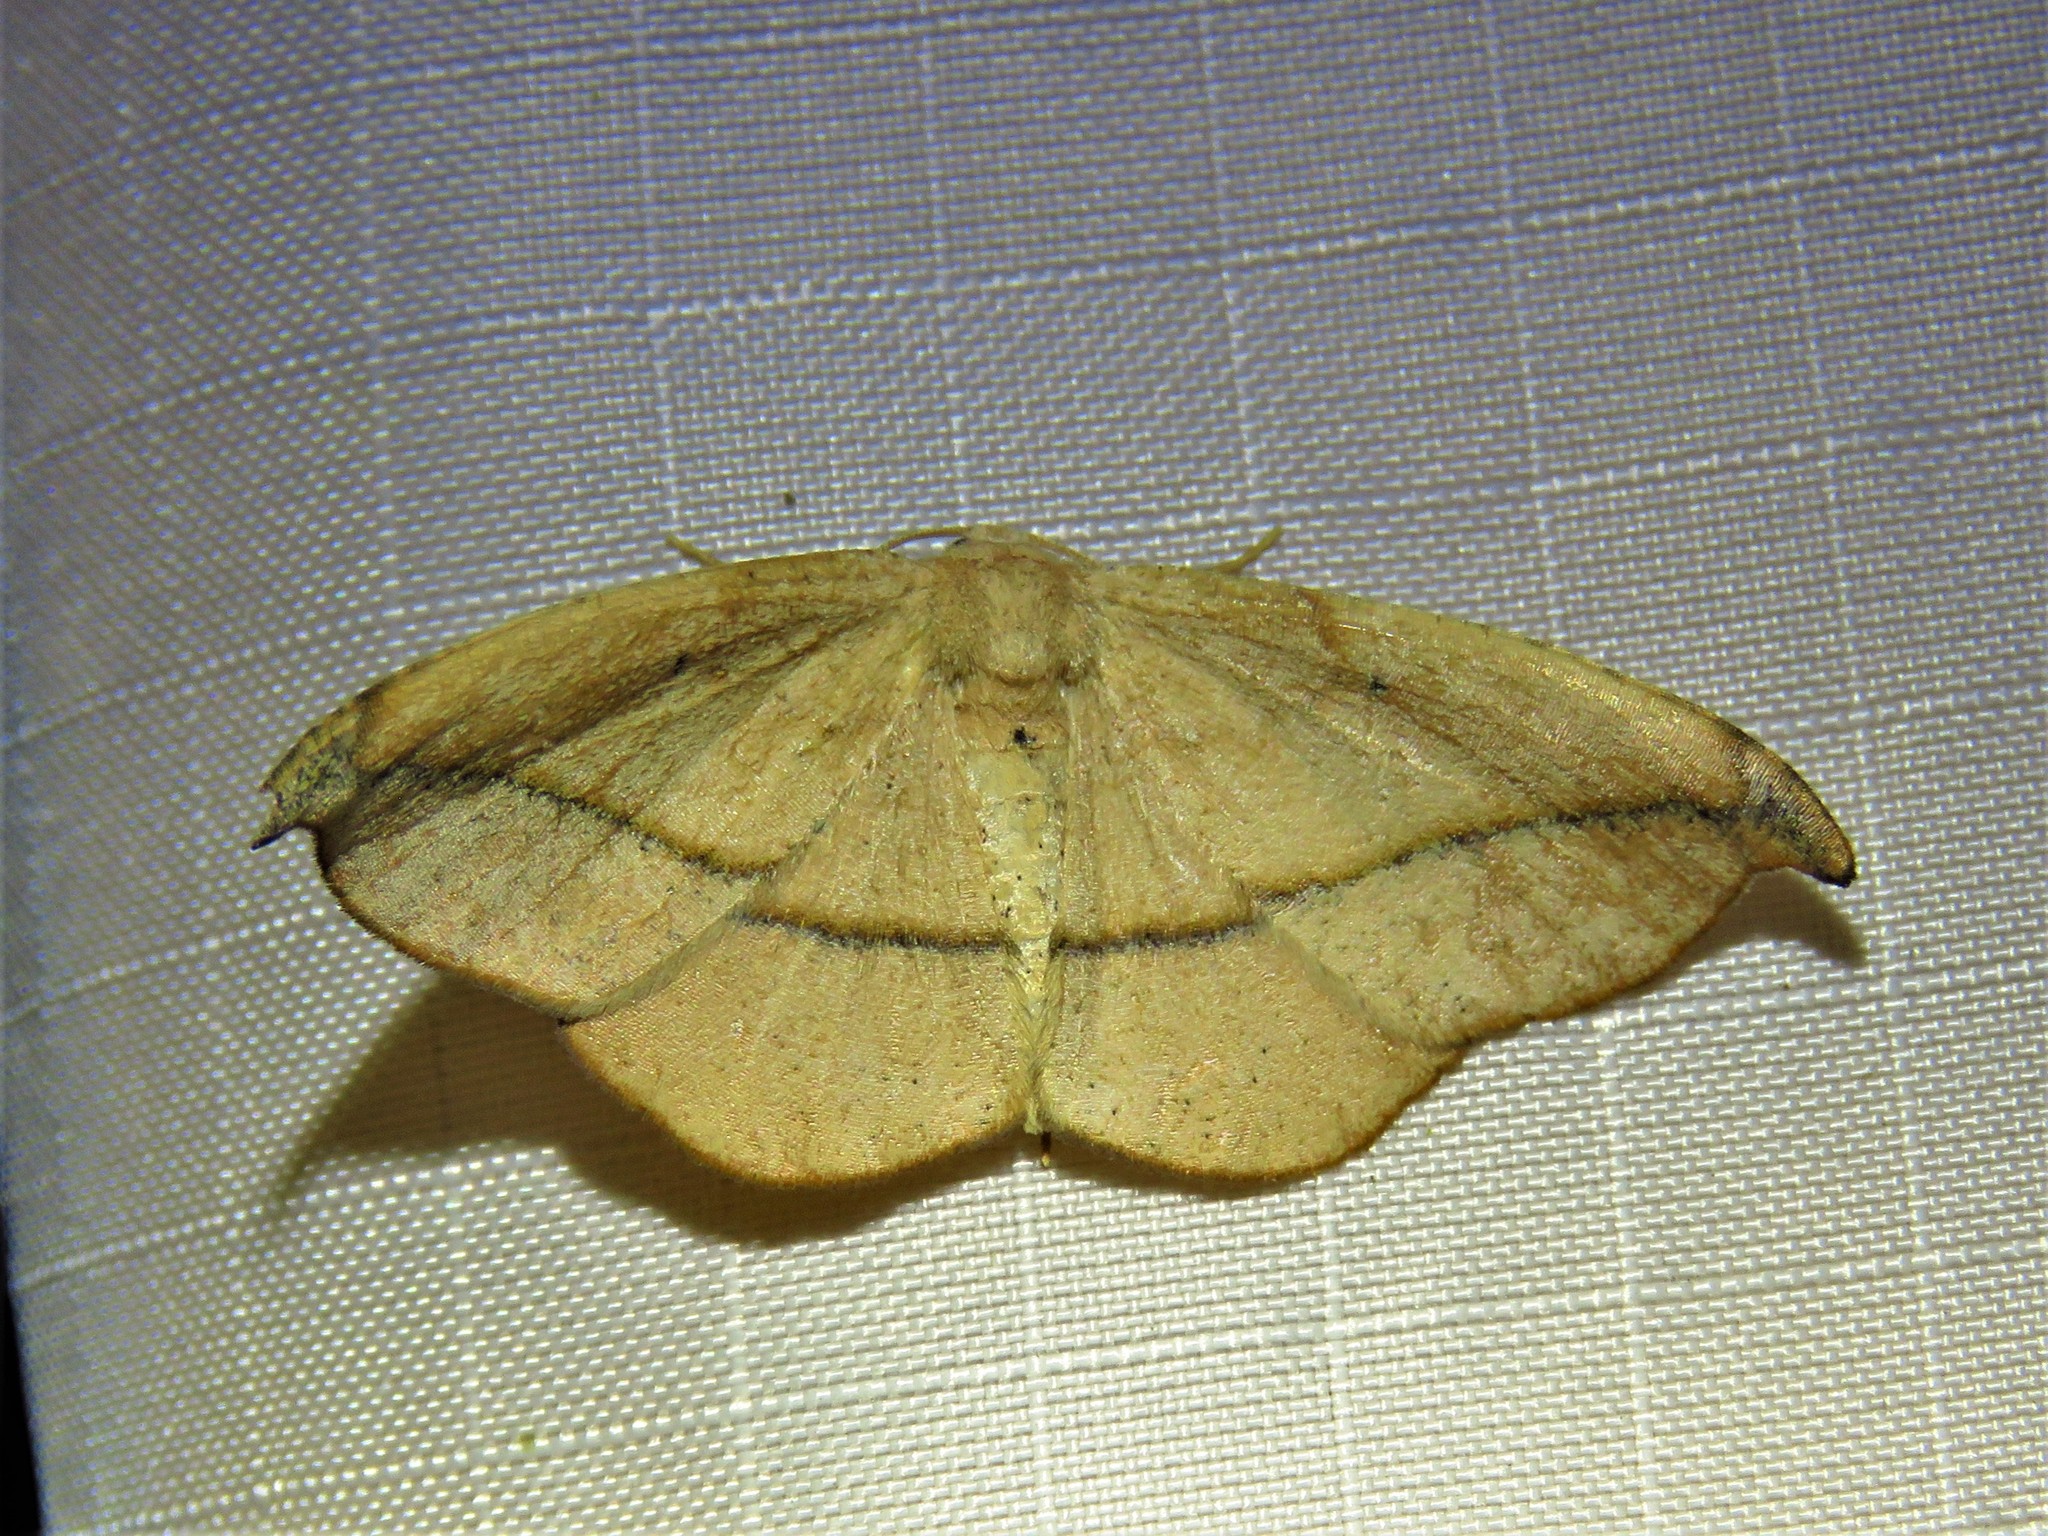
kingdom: Animalia
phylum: Arthropoda
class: Insecta
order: Lepidoptera
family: Geometridae
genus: Patalene
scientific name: Patalene olyzonaria
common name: Juniper geometer moth
